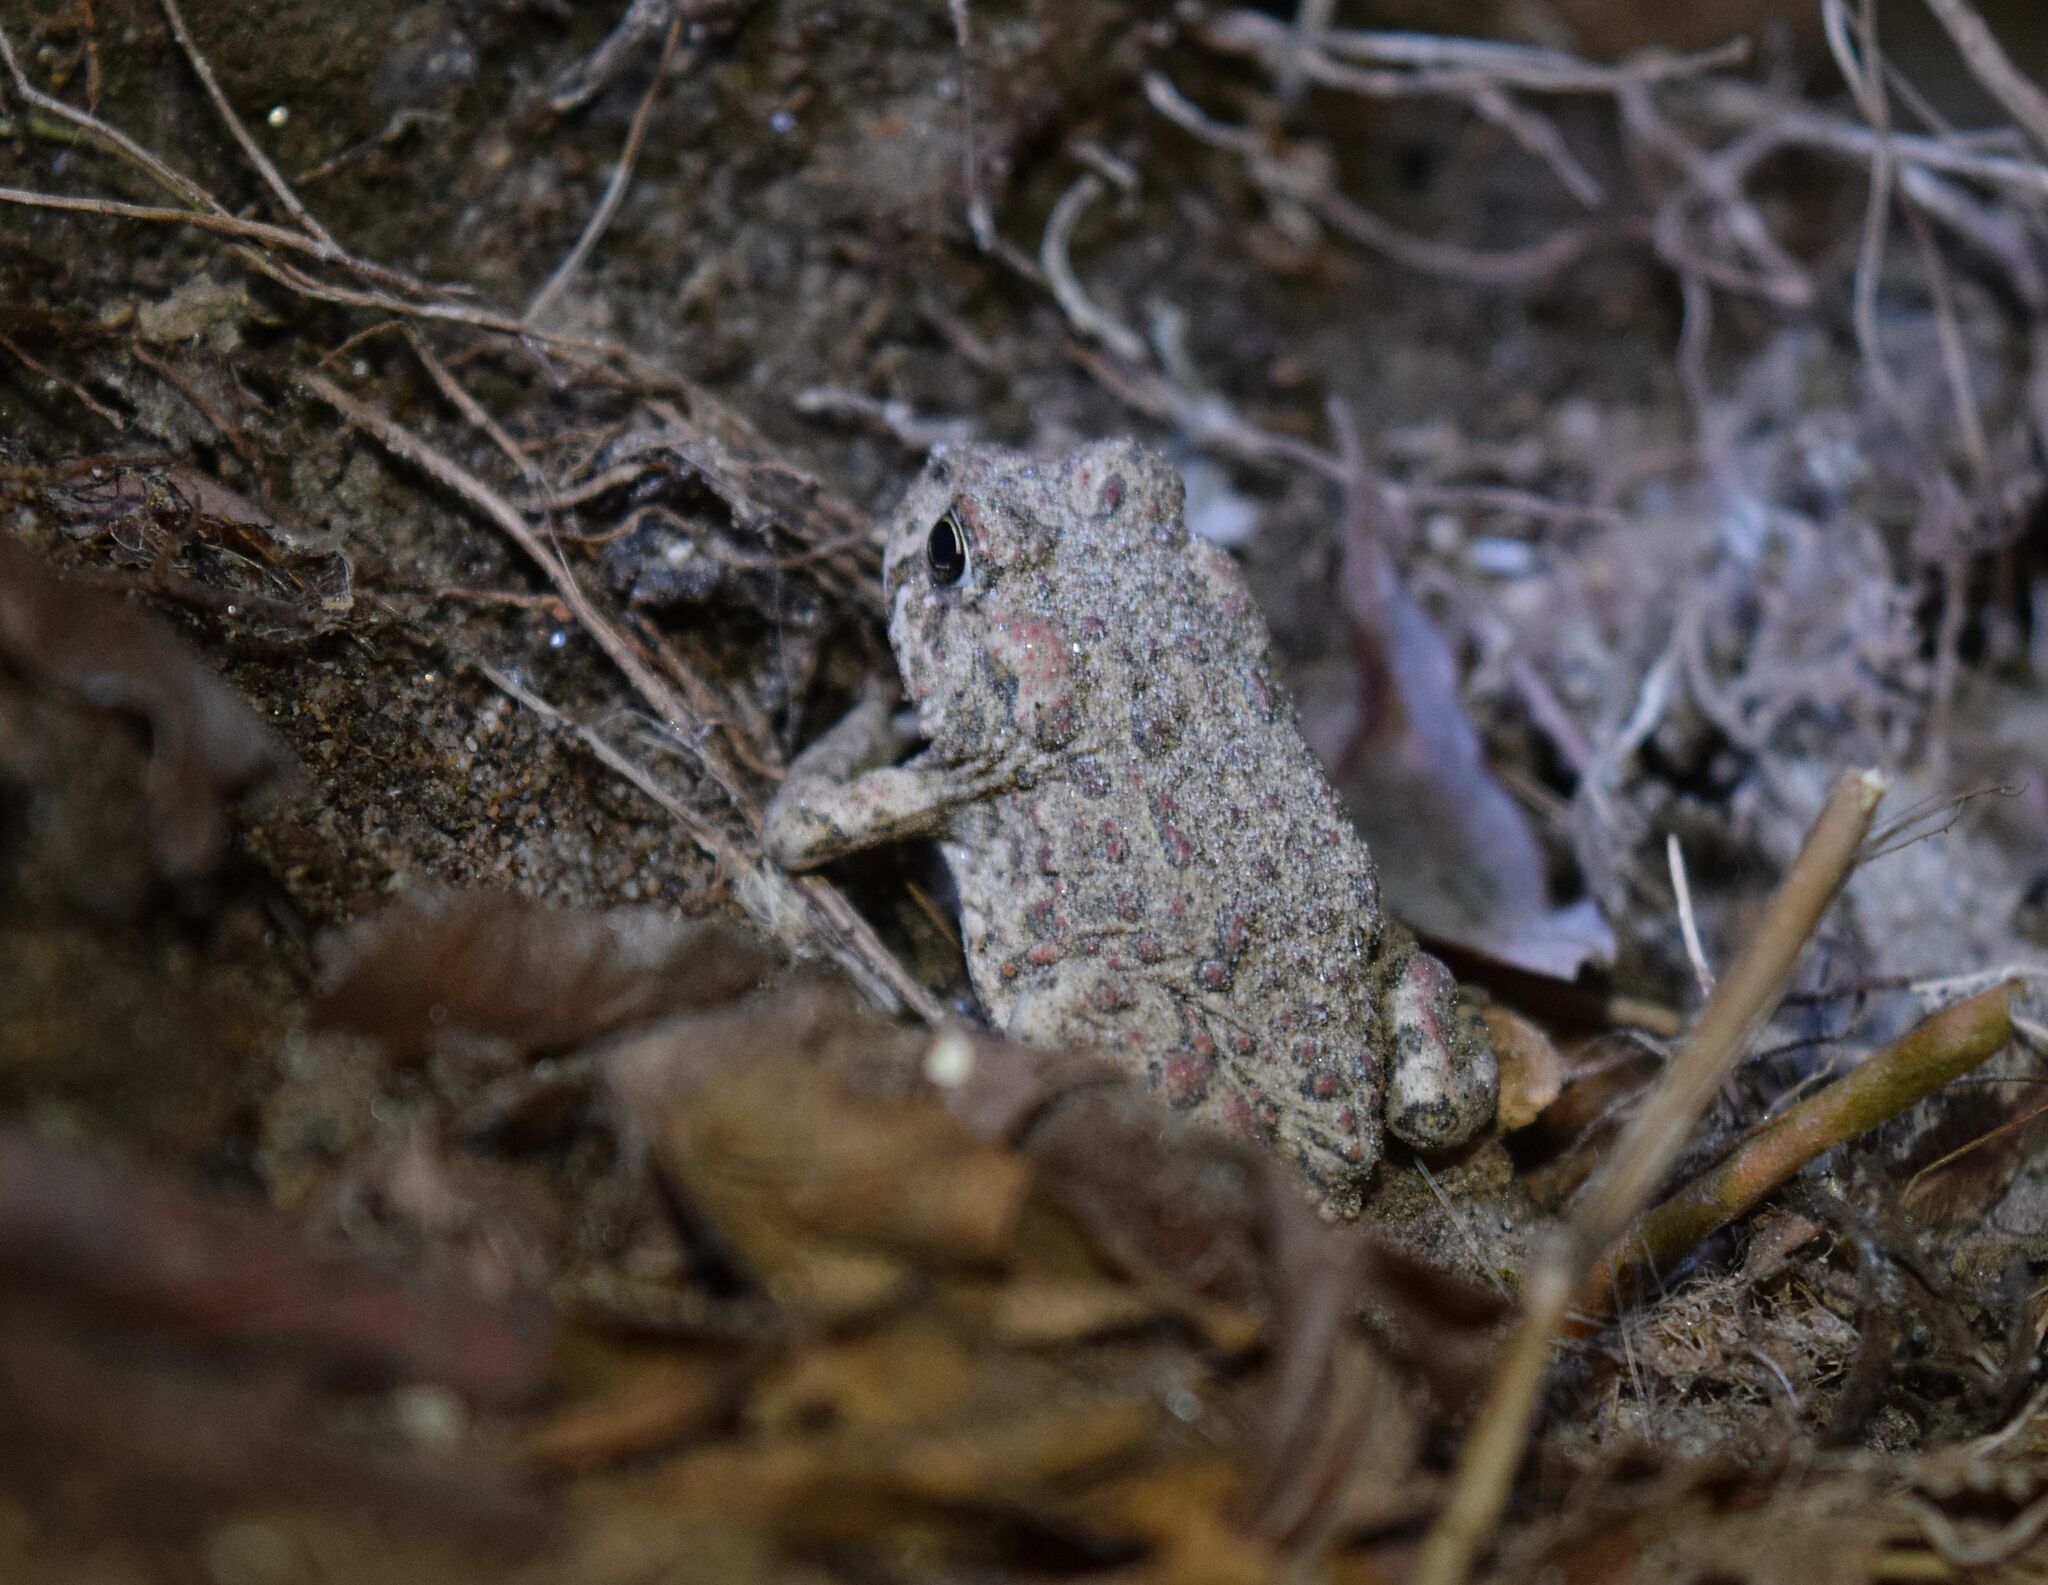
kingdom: Animalia
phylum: Chordata
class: Amphibia
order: Anura
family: Bufonidae
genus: Anaxyrus
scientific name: Anaxyrus boreas
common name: Western toad
